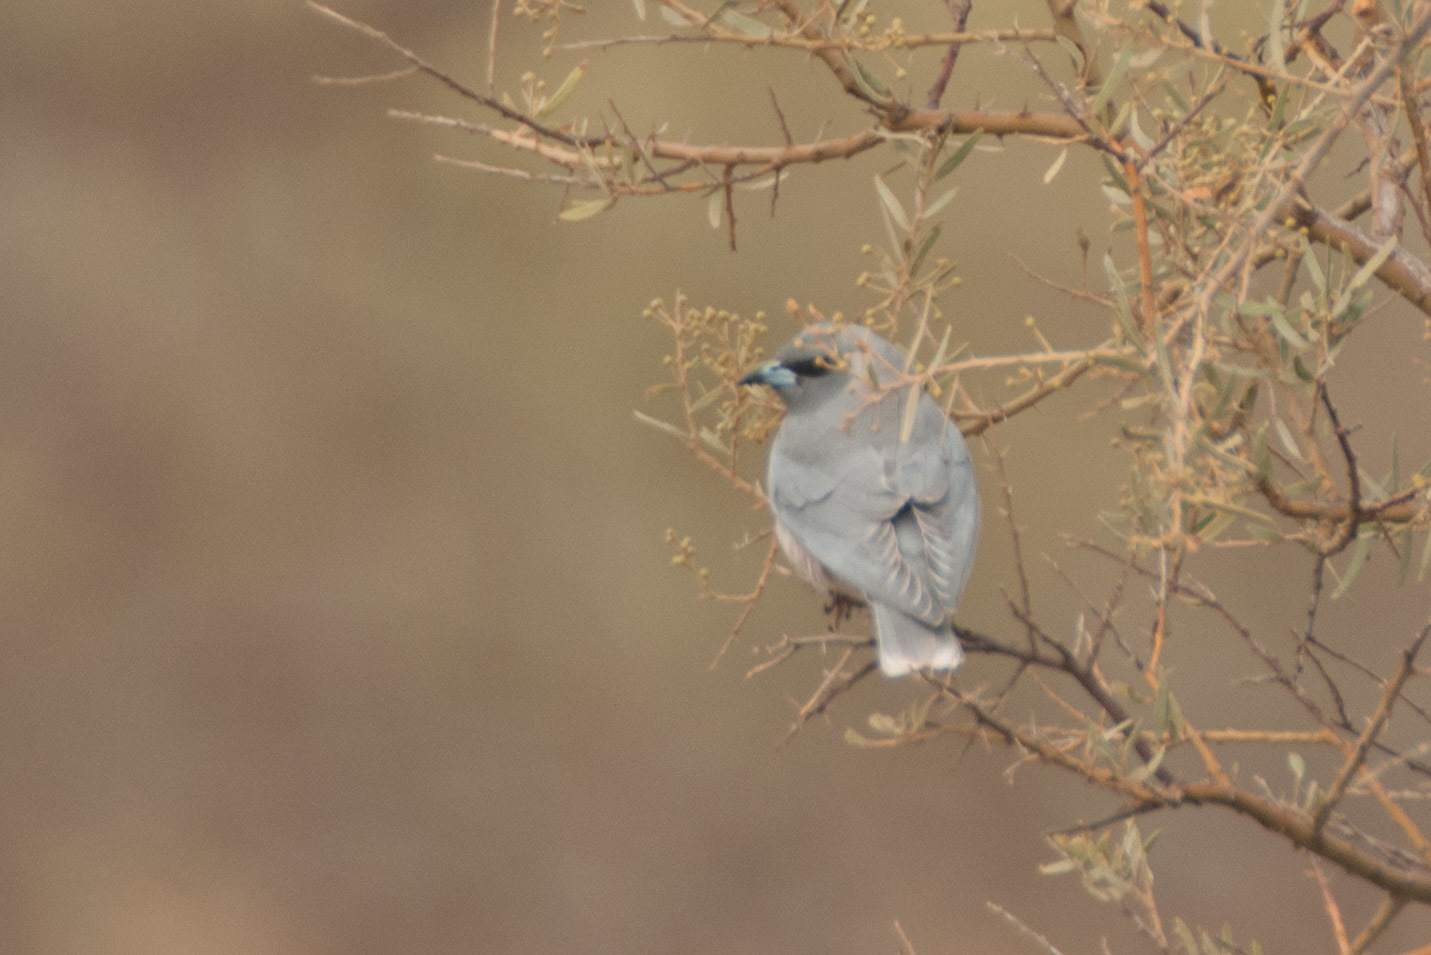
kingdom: Animalia
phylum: Chordata
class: Aves
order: Passeriformes
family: Artamidae
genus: Artamus
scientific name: Artamus personatus
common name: Masked woodswallow
